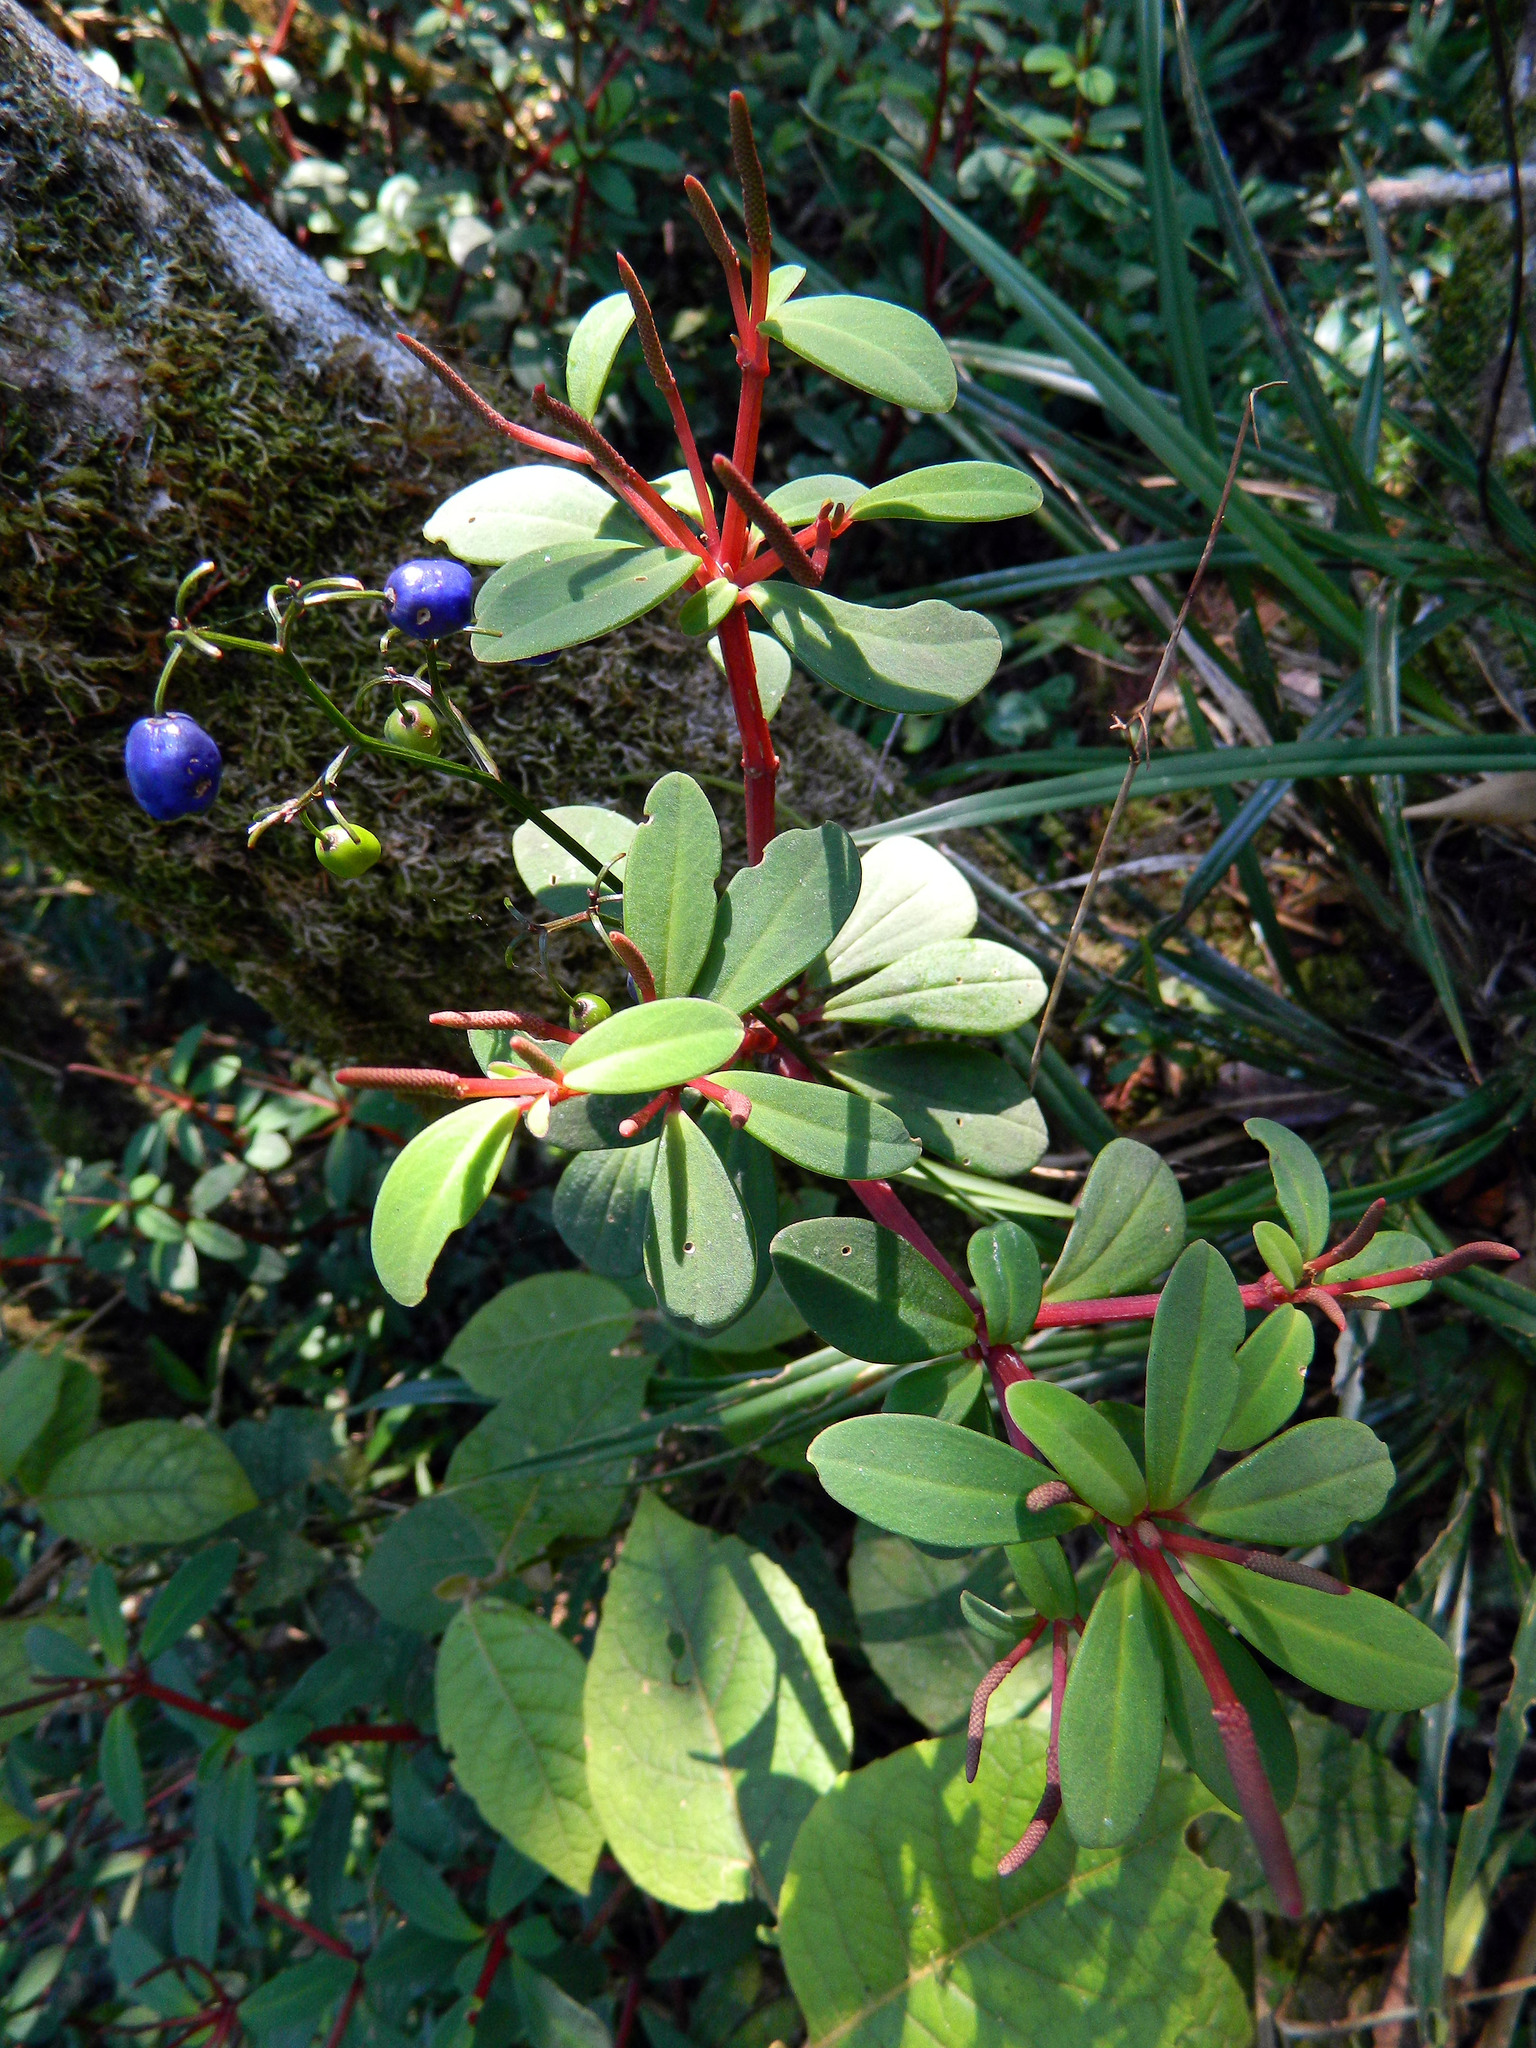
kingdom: Plantae
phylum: Tracheophyta
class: Liliopsida
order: Asparagales
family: Asphodelaceae
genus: Dianella
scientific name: Dianella ensifolia
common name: New zealand lilyplant
